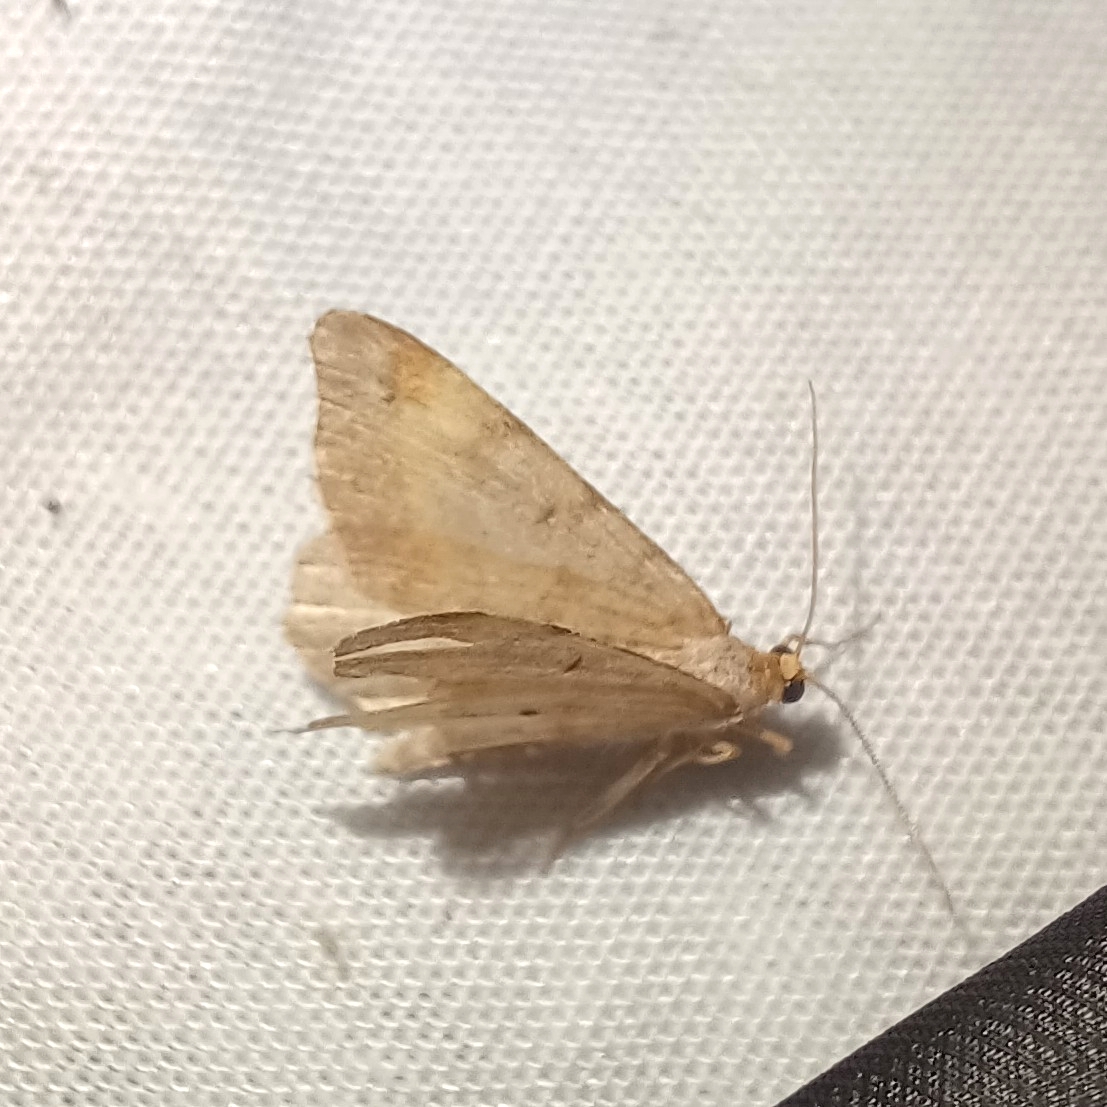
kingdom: Animalia
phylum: Arthropoda
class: Insecta
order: Lepidoptera
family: Geometridae
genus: Macaria
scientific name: Macaria liturata
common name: Tawny-barred angle
